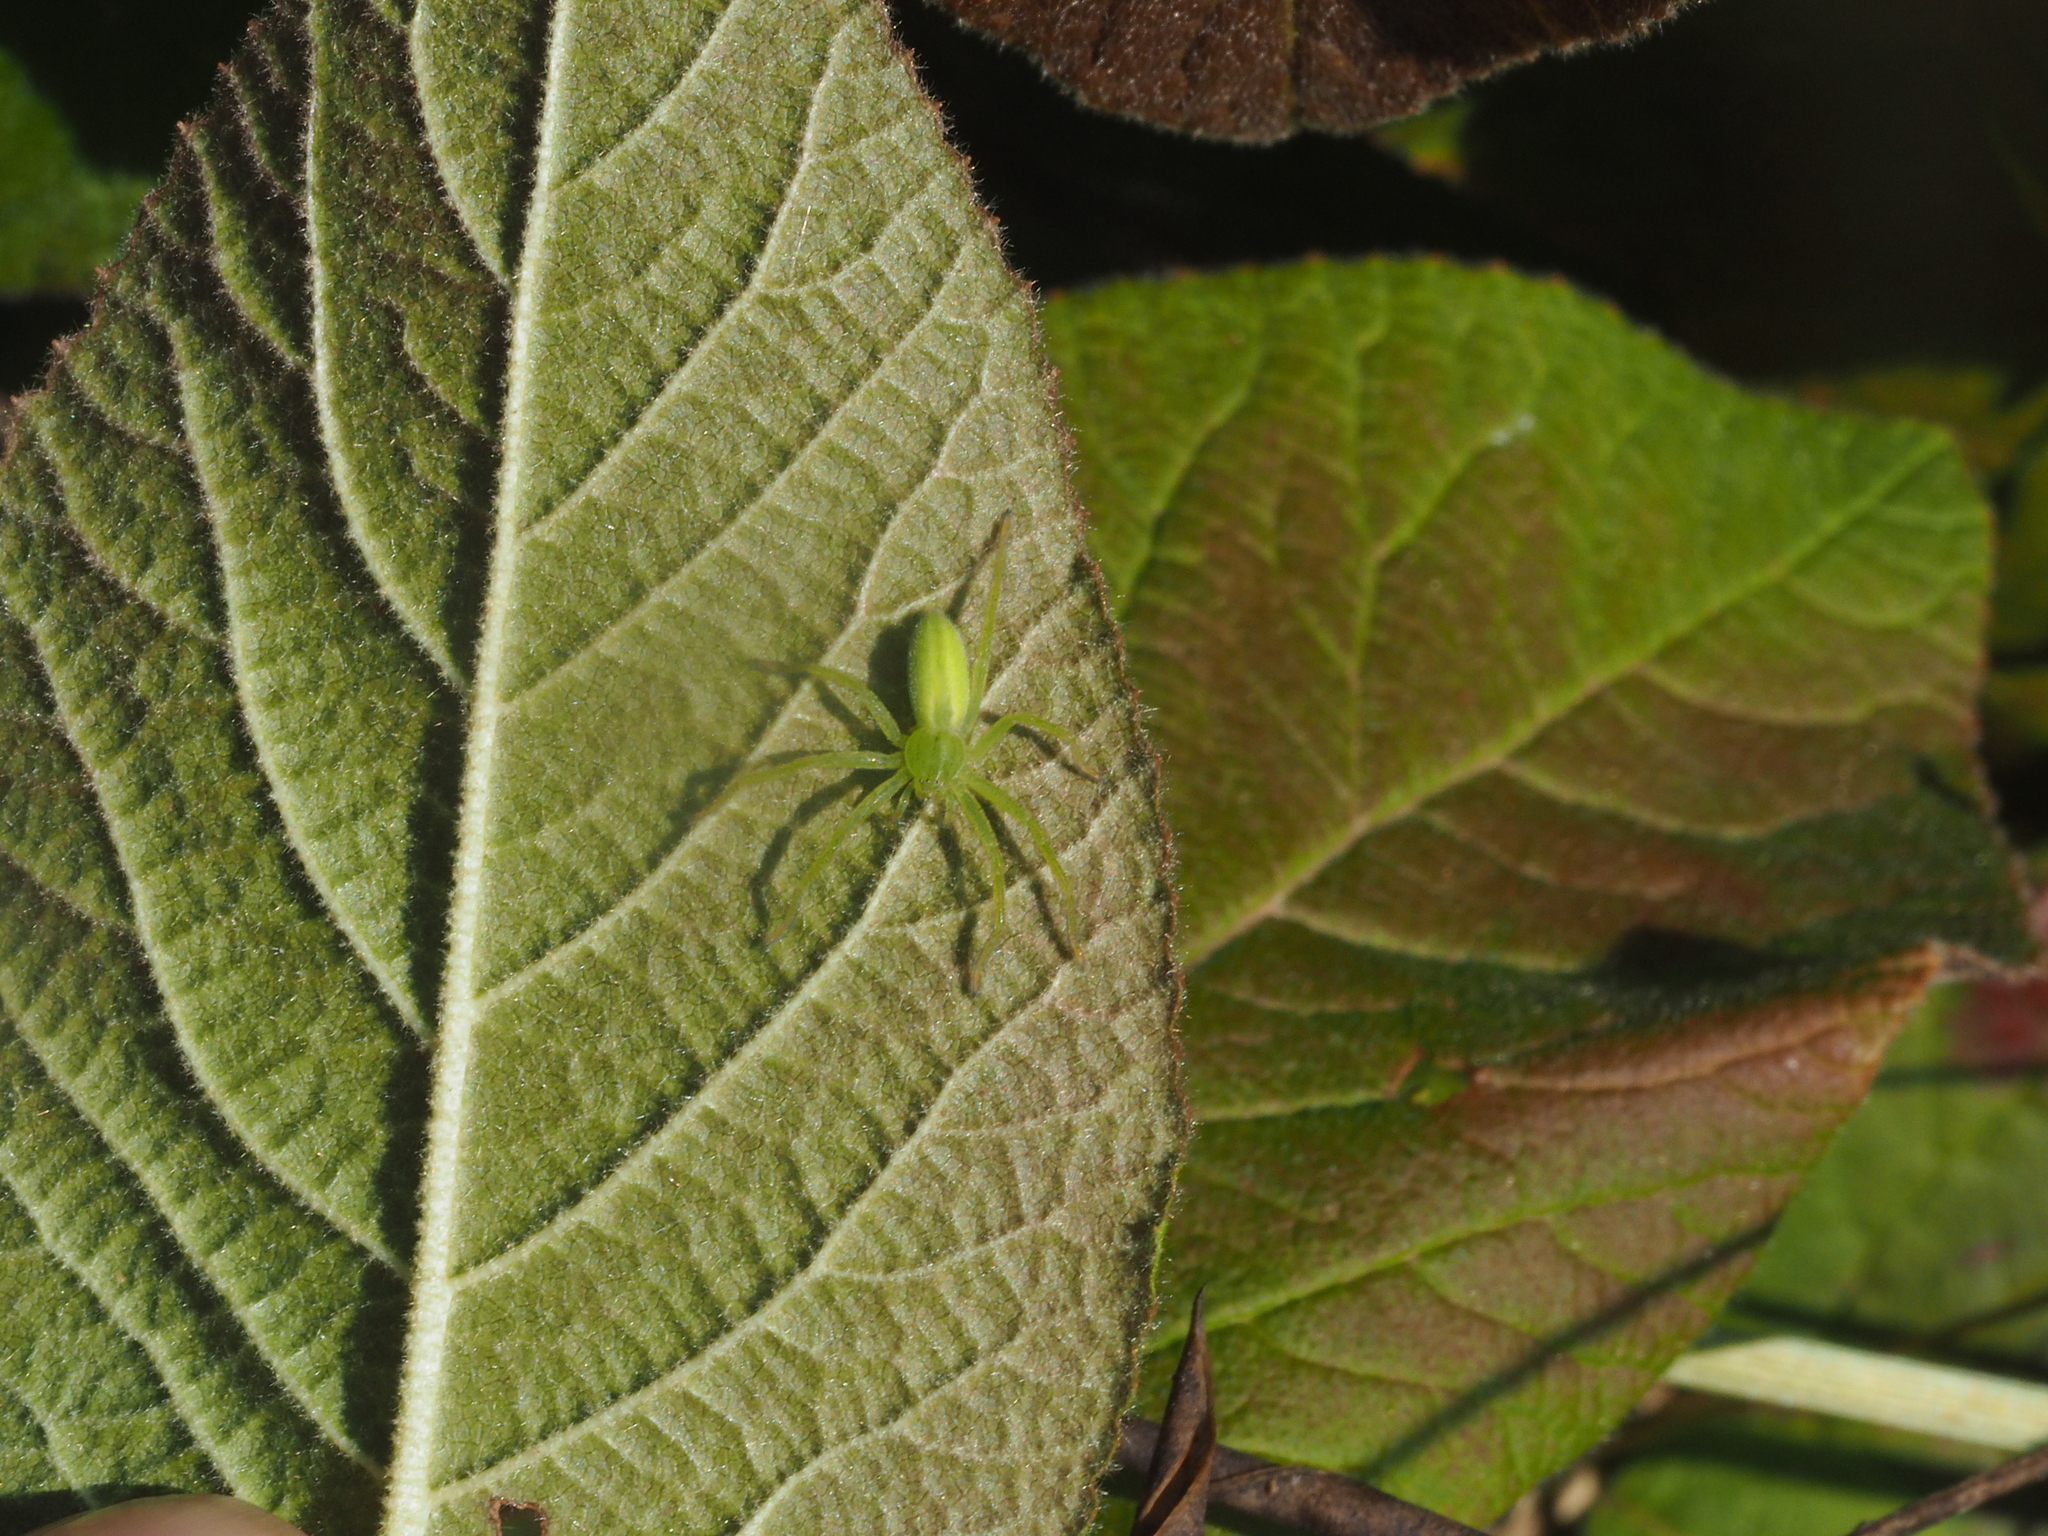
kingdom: Animalia
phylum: Arthropoda
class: Arachnida
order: Araneae
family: Sparassidae
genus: Micrommata
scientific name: Micrommata virescens
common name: Green spider
